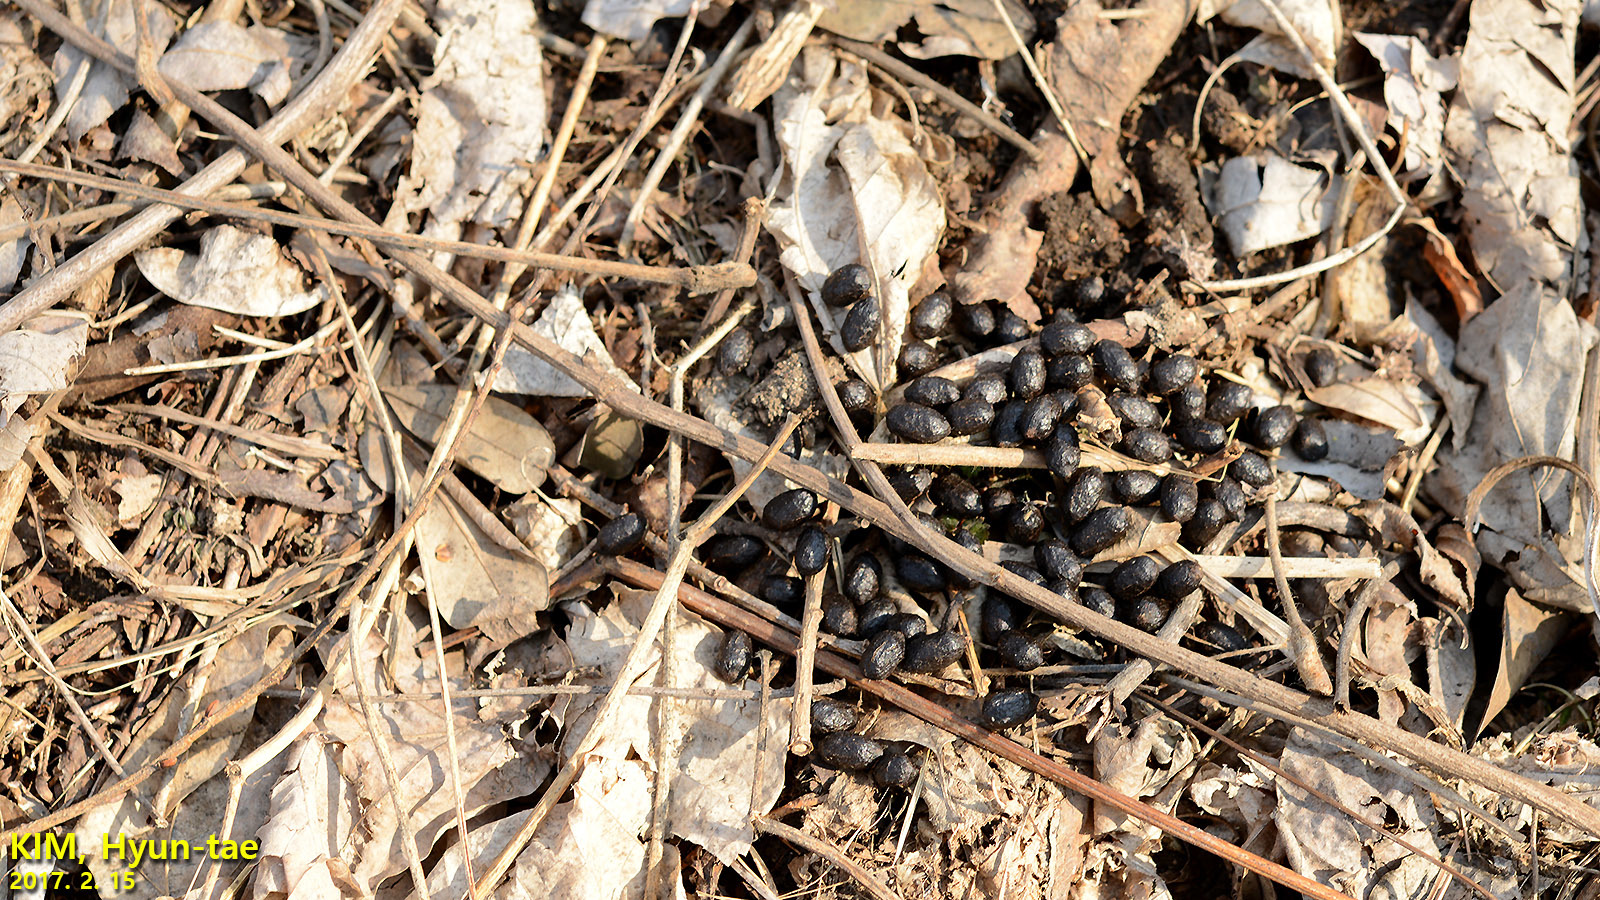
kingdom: Animalia
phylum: Chordata
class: Mammalia
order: Artiodactyla
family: Cervidae
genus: Hydropotes
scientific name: Hydropotes inermis
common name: Chinese water deer
